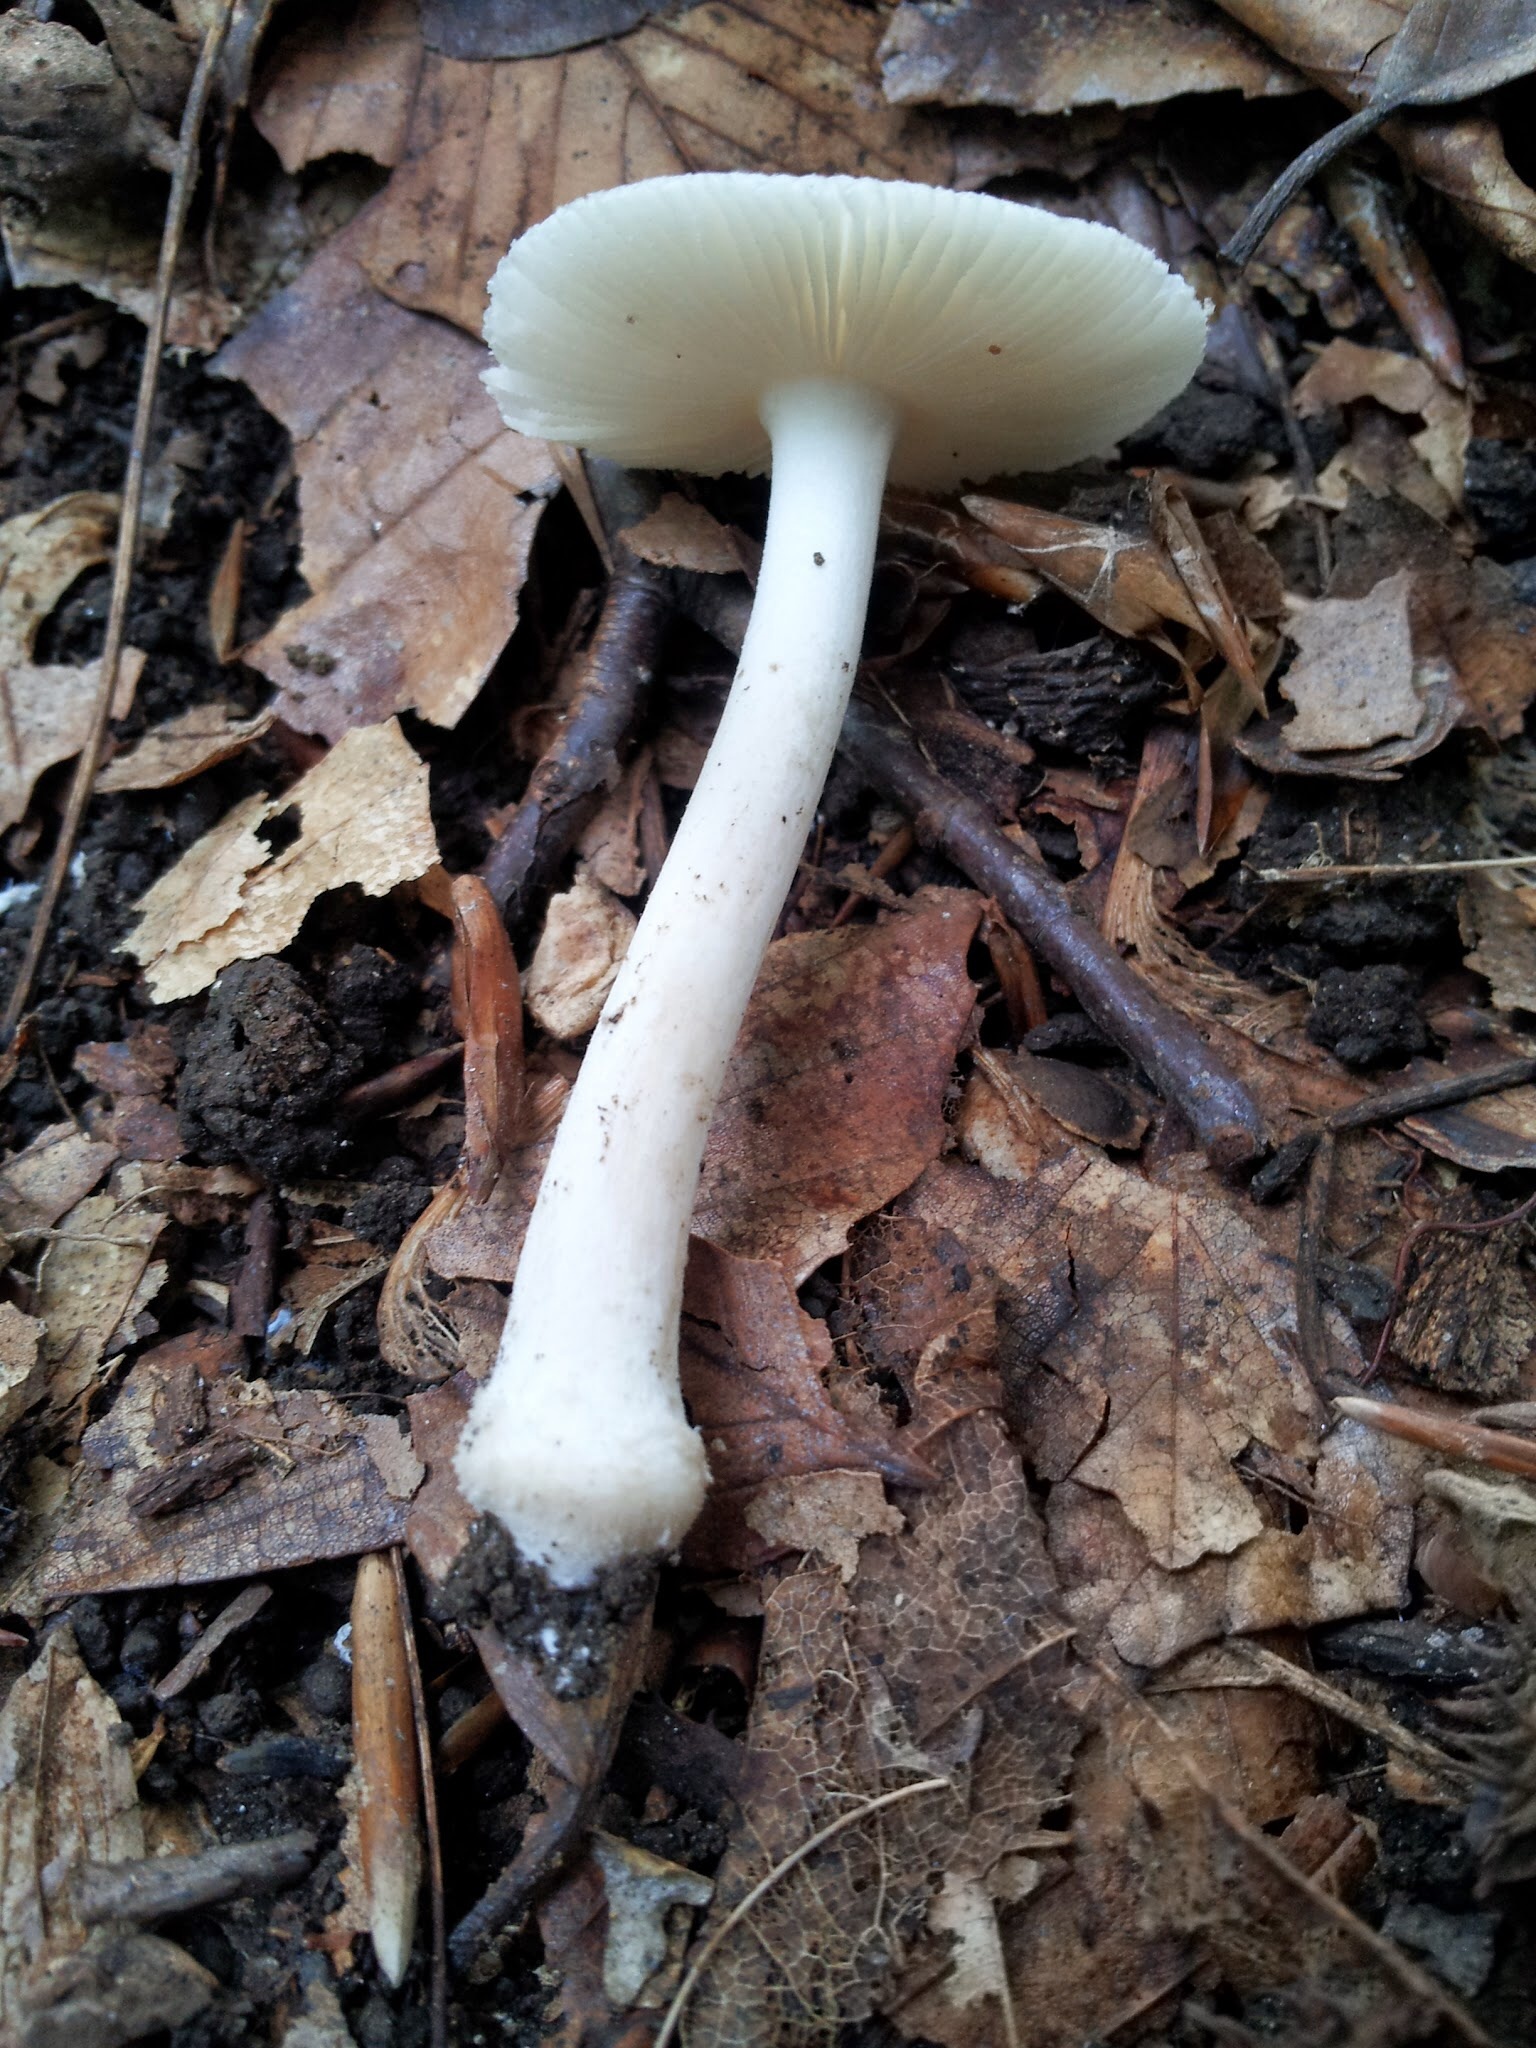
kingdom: Fungi
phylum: Basidiomycota
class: Agaricomycetes
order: Agaricales
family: Amanitaceae
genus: Amanita
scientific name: Amanita farinosa
